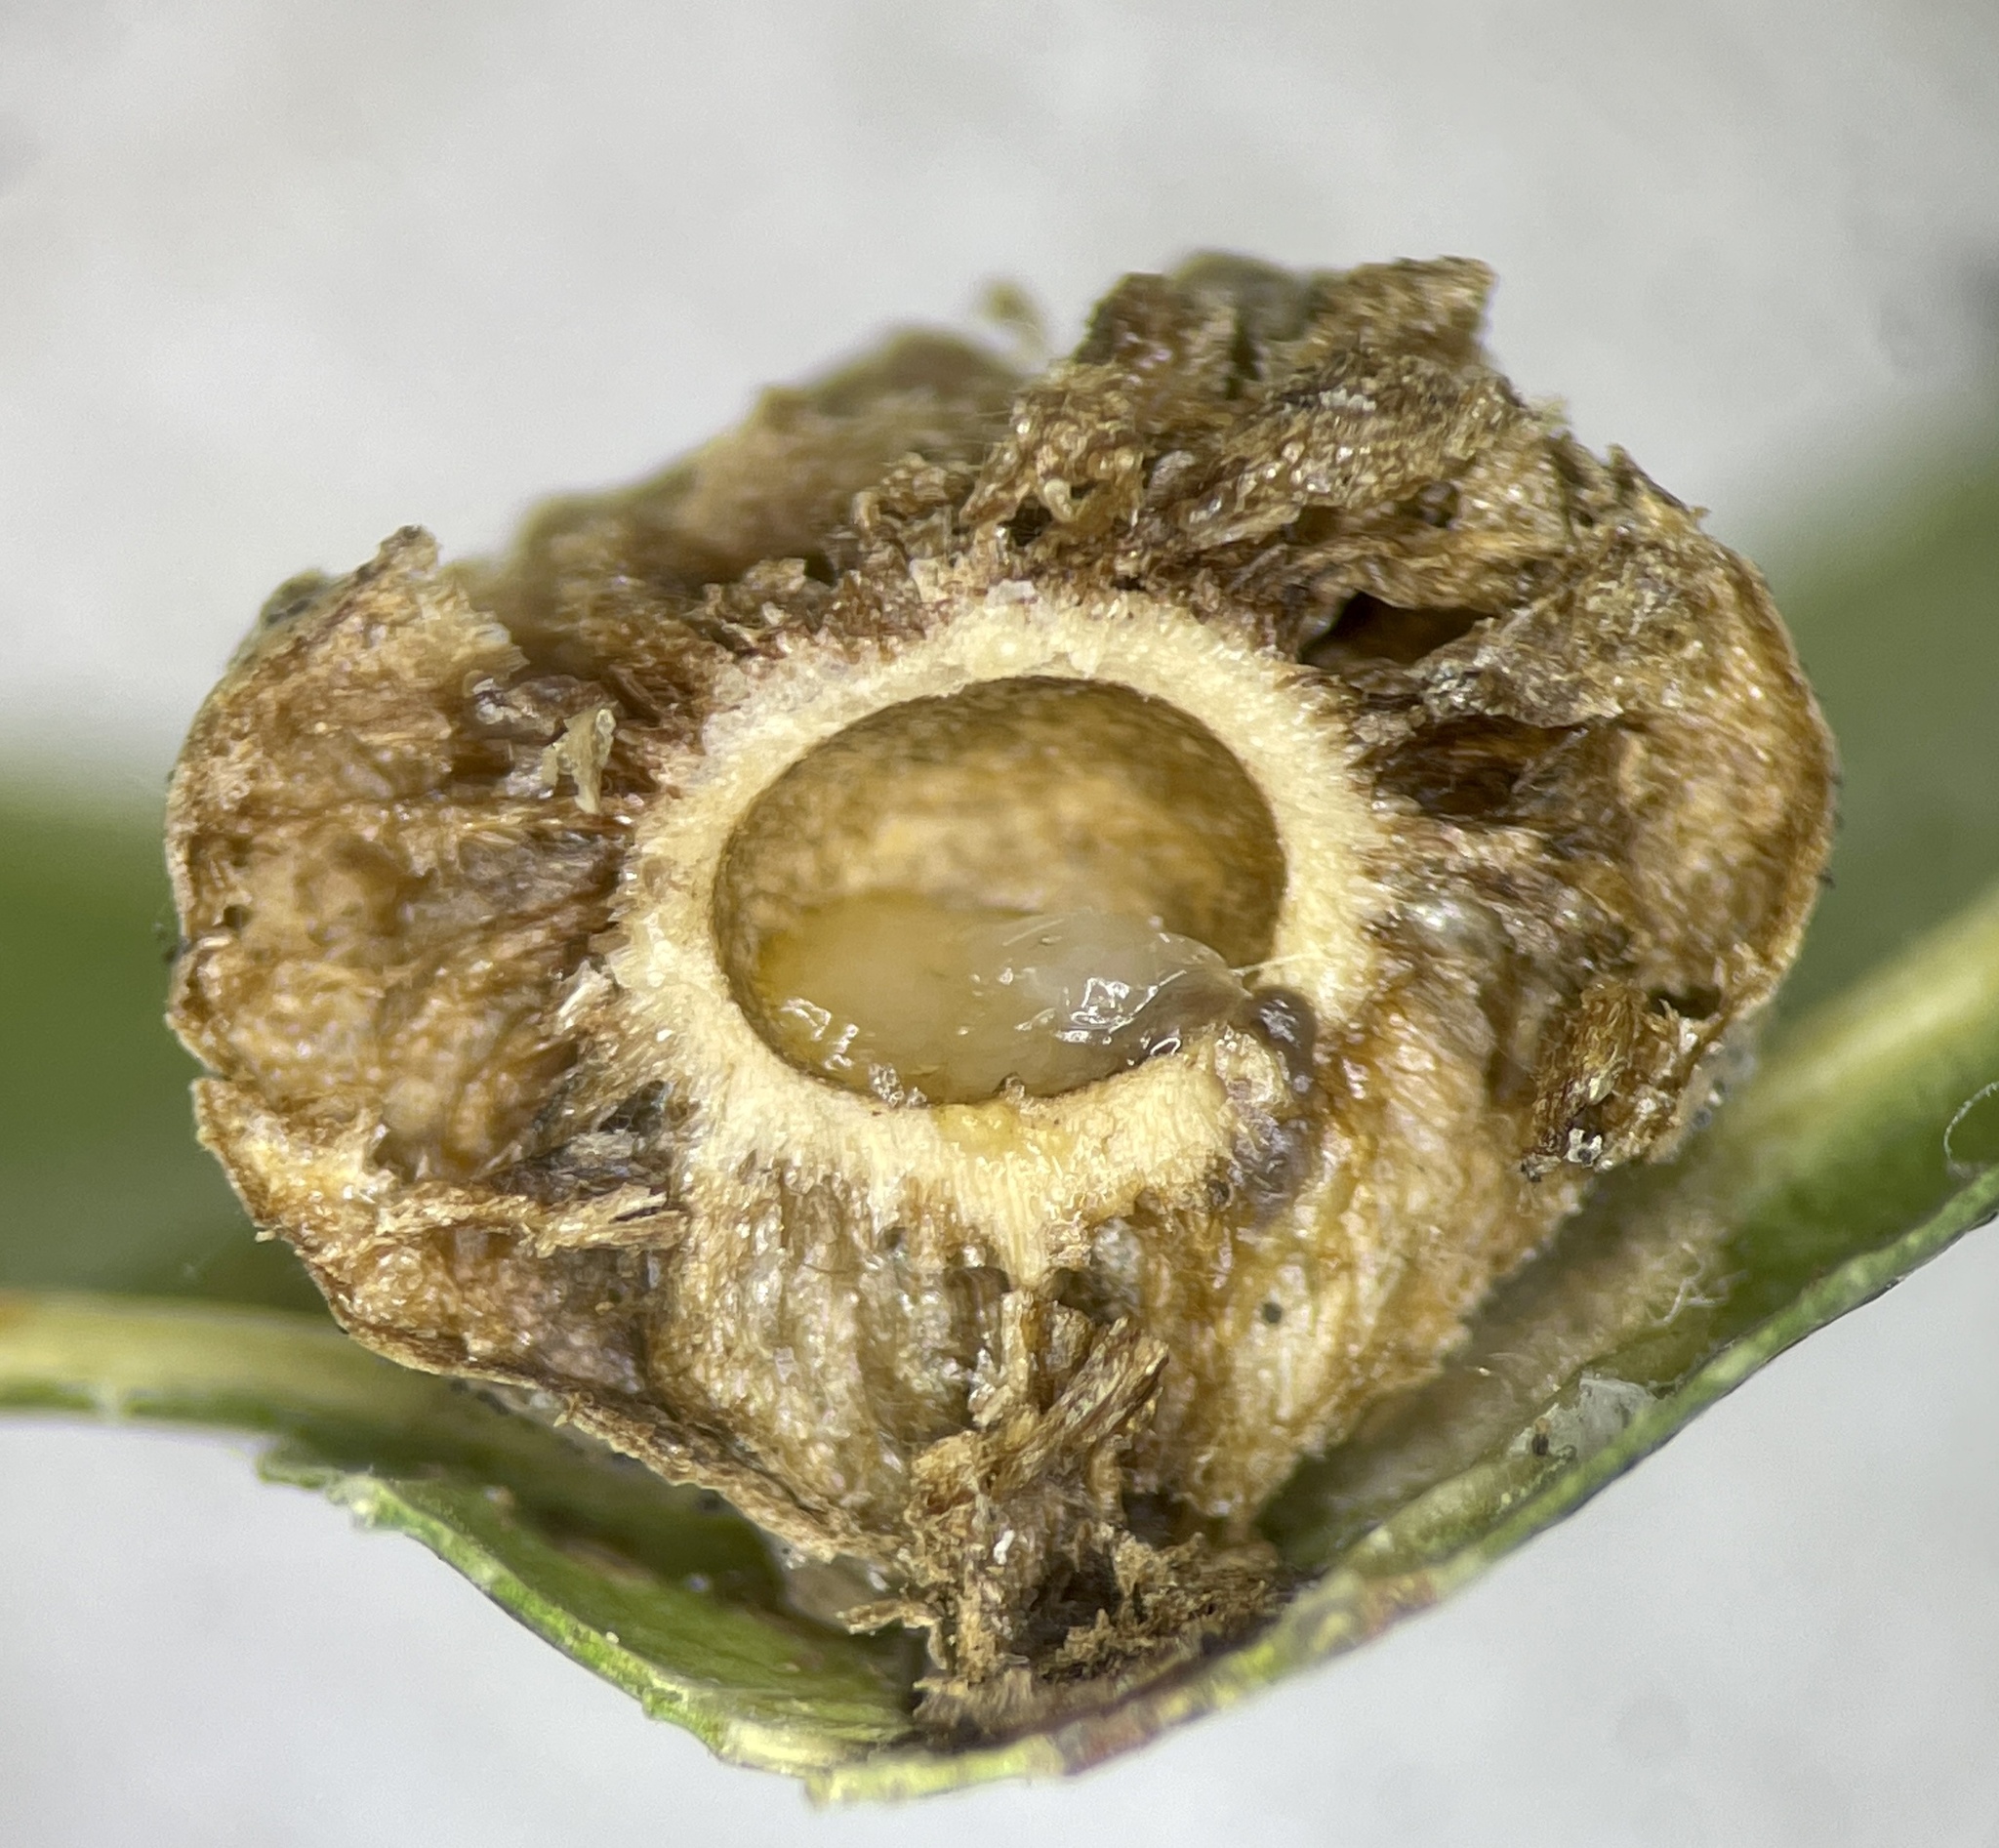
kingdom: Animalia
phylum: Arthropoda
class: Insecta
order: Hymenoptera
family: Cynipidae
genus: Amphibolips
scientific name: Amphibolips
